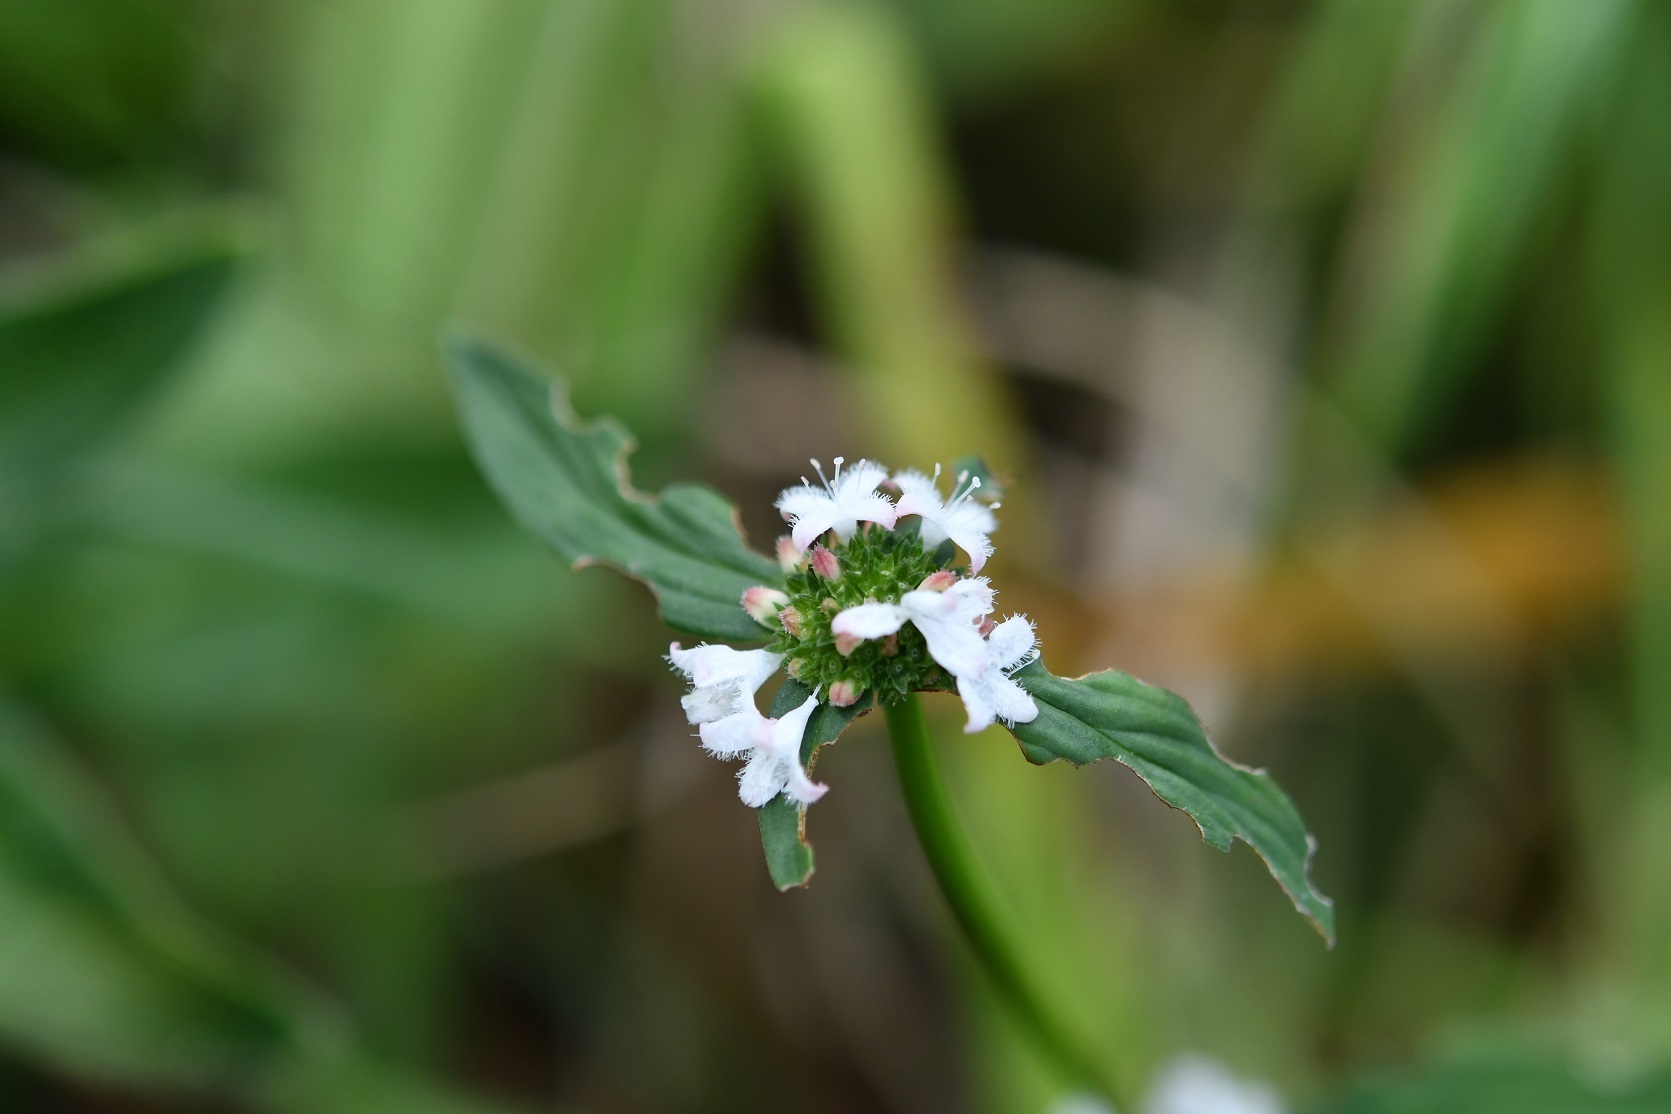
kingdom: Plantae
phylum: Tracheophyta
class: Magnoliopsida
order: Gentianales
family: Rubiaceae
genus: Spermacoce
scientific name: Spermacoce remota
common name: Woodland false buttonweed
